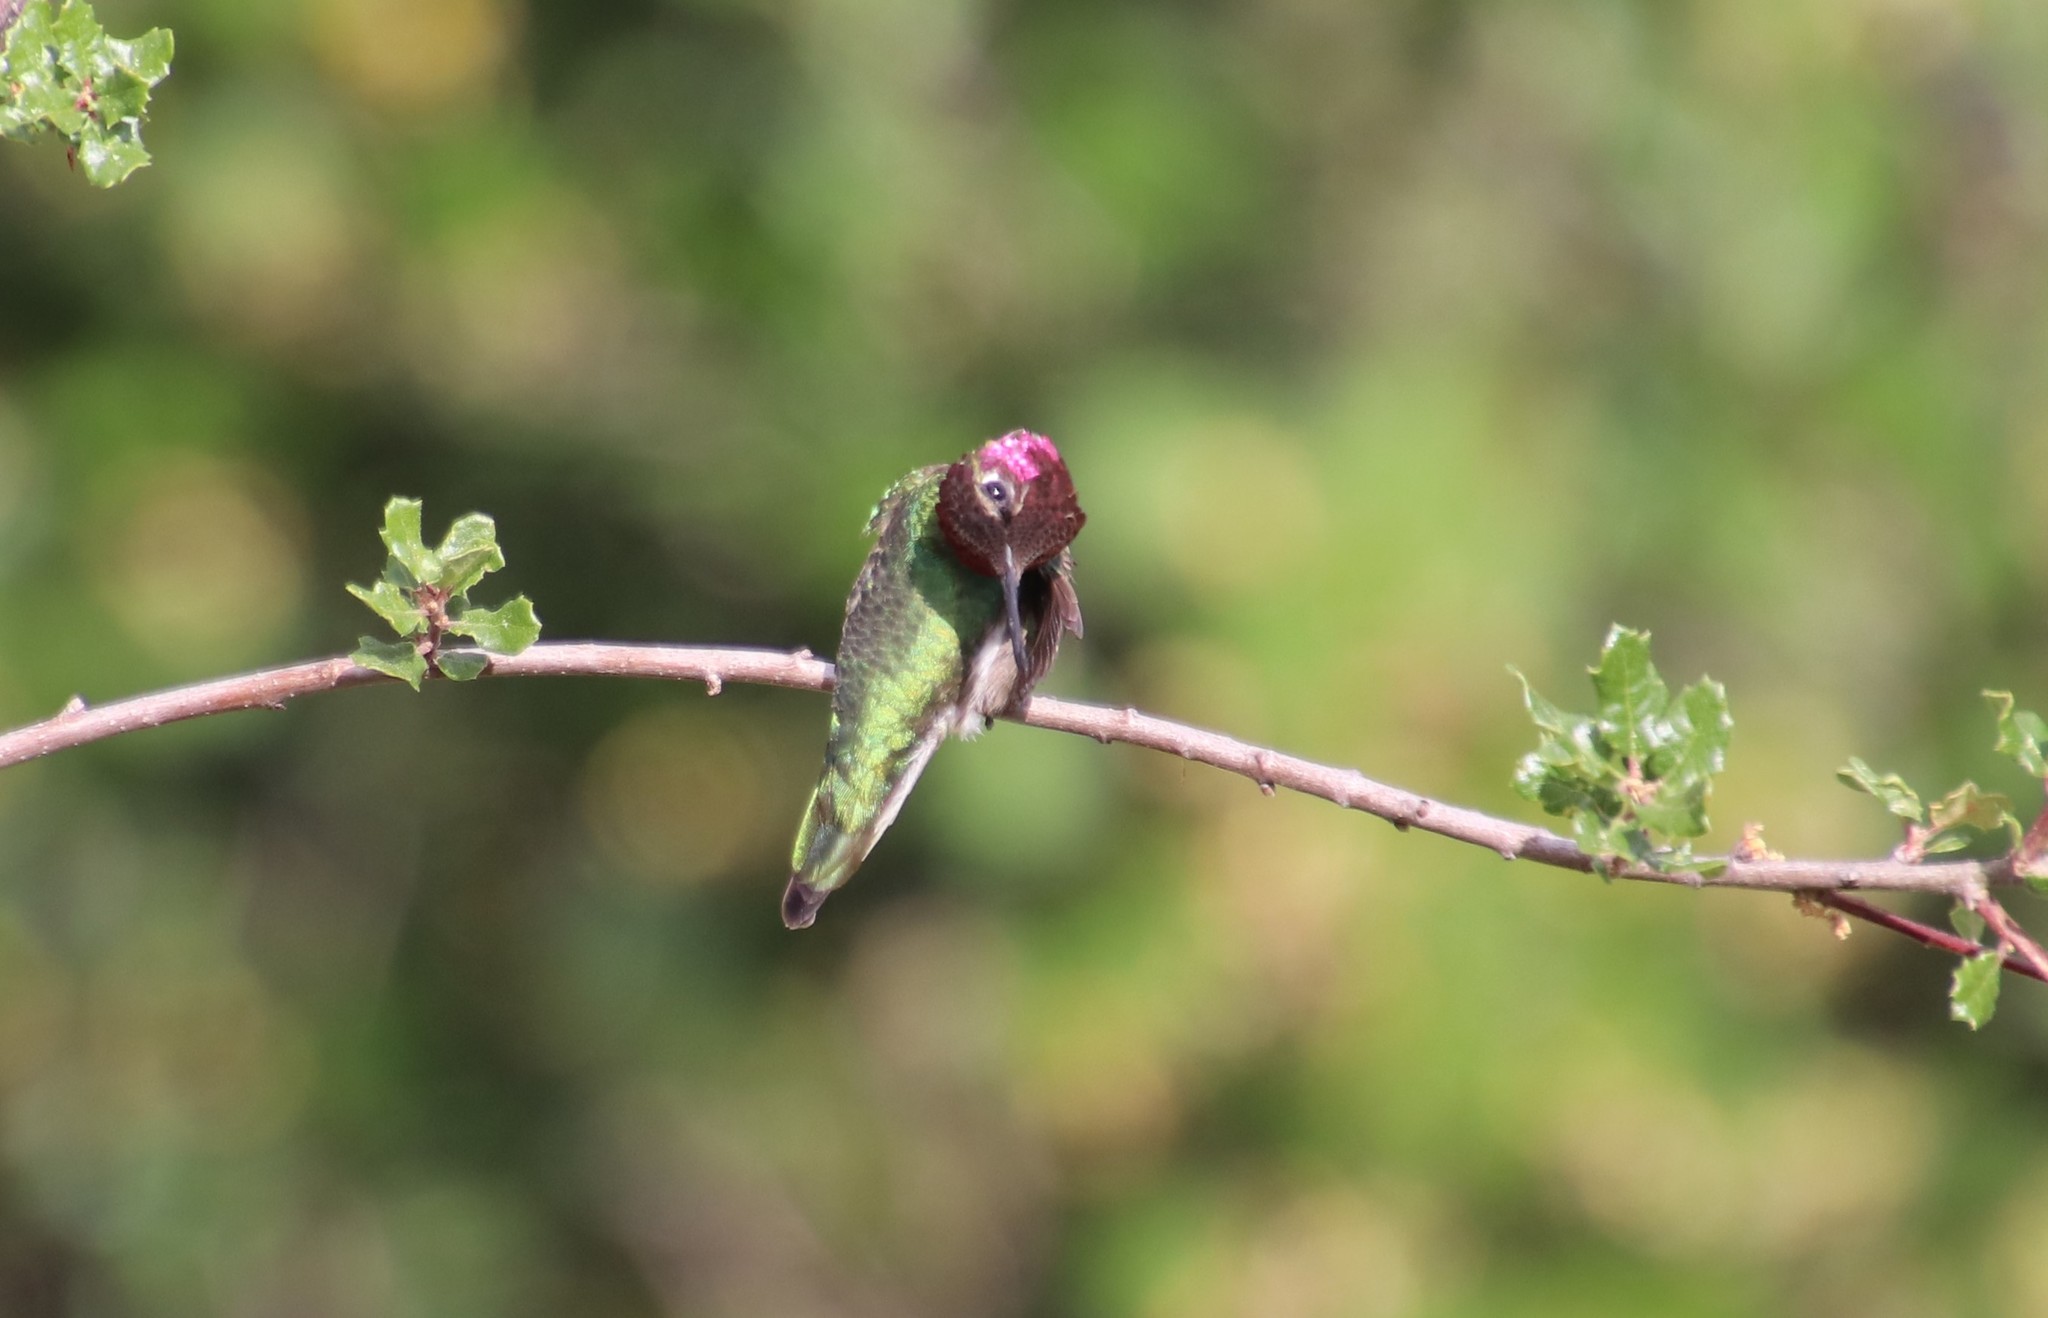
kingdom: Animalia
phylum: Chordata
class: Aves
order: Apodiformes
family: Trochilidae
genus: Calypte
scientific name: Calypte anna
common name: Anna's hummingbird
